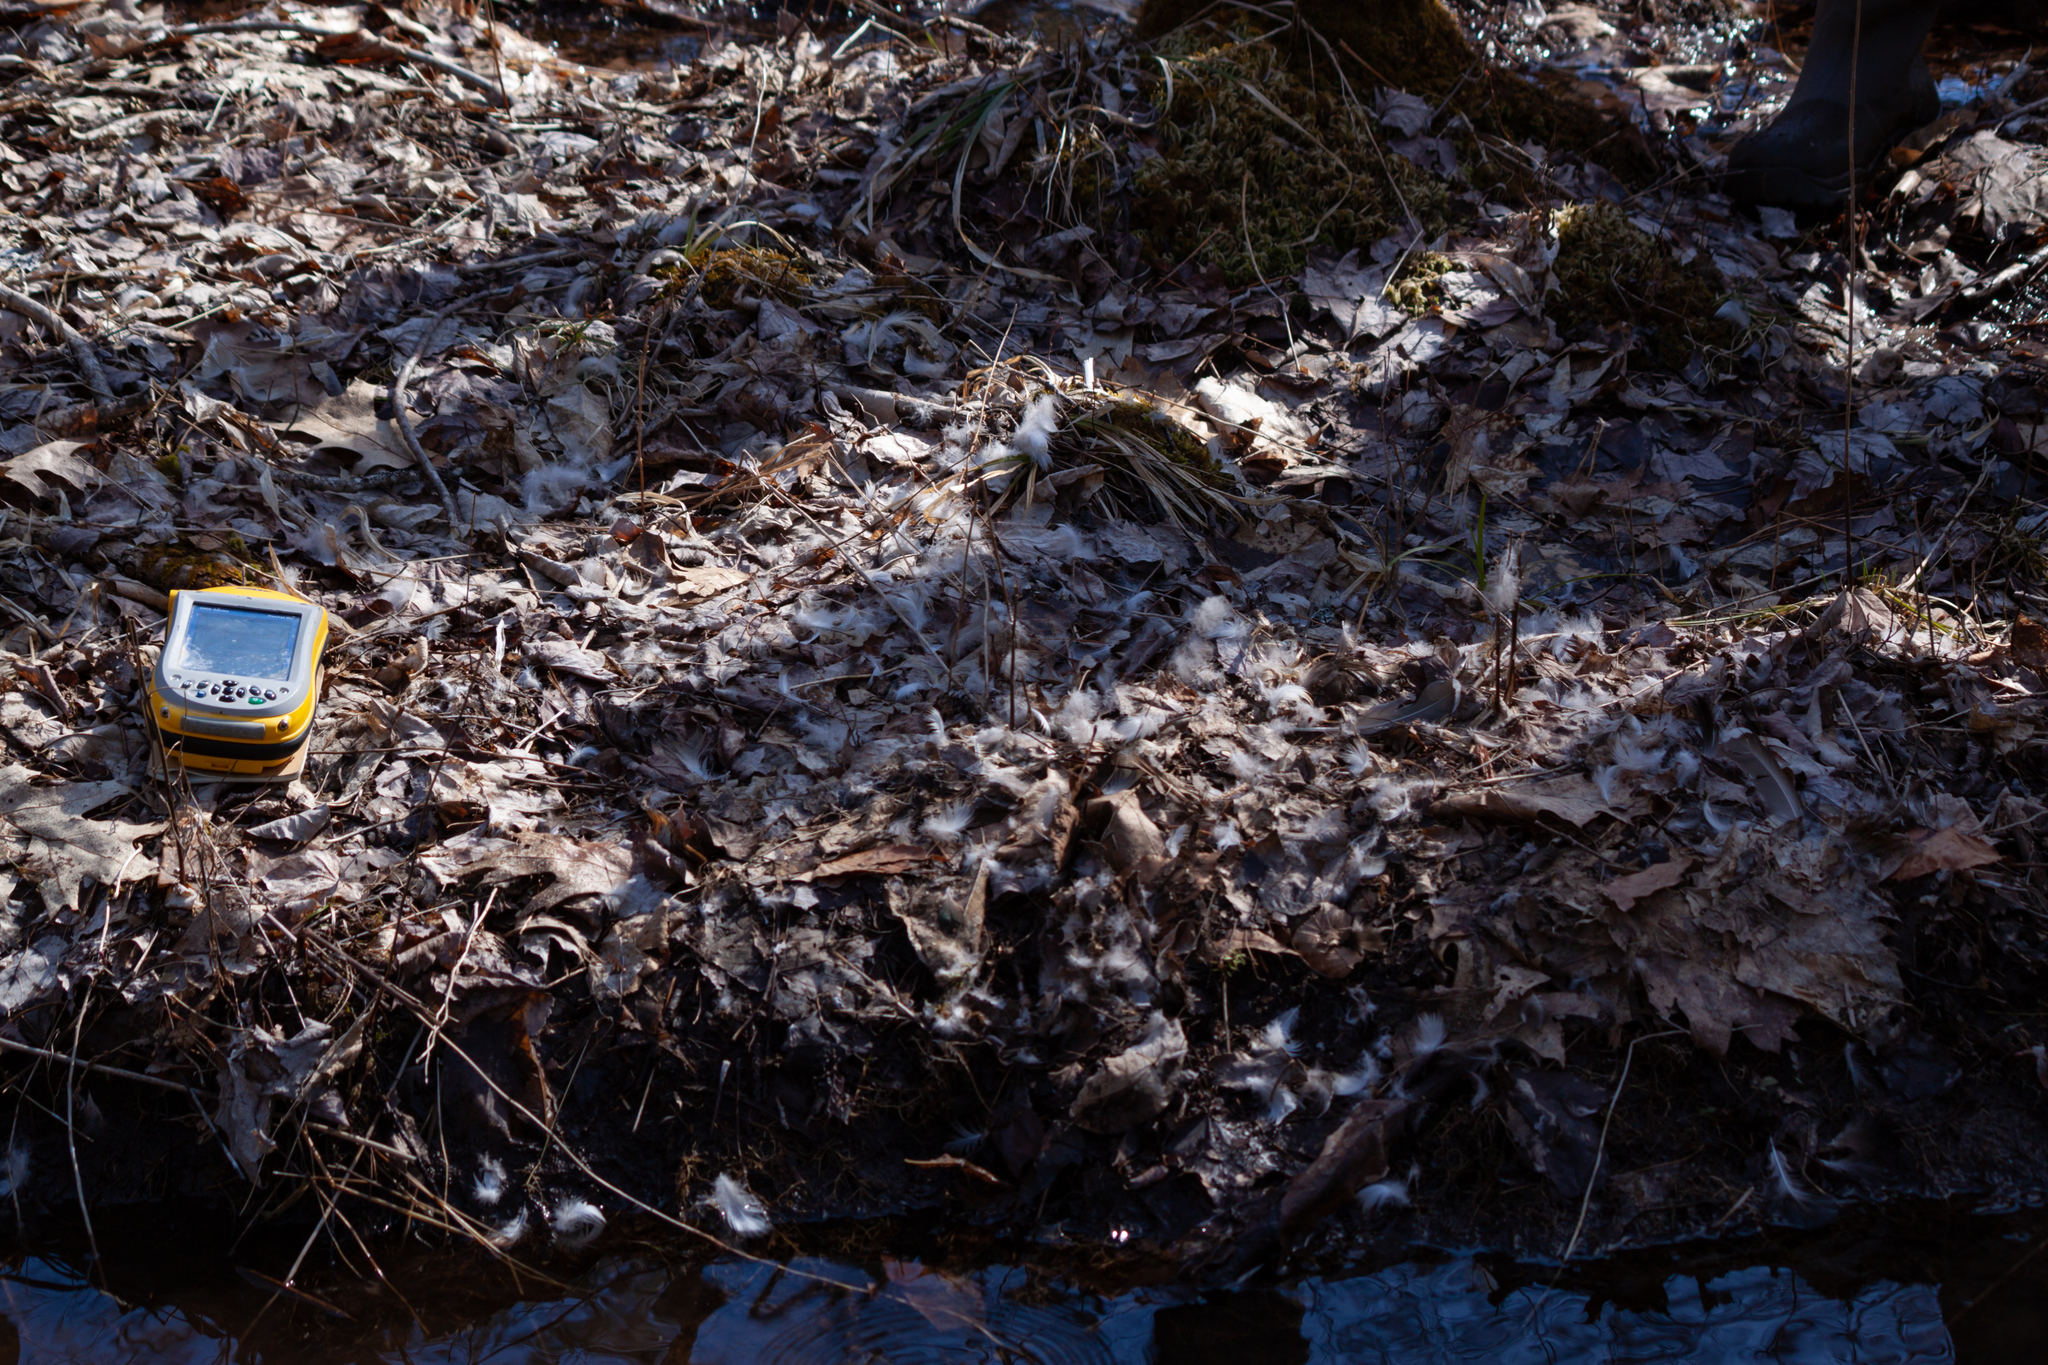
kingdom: Animalia
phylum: Chordata
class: Aves
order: Anseriformes
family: Anatidae
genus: Aix
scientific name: Aix sponsa
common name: Wood duck
